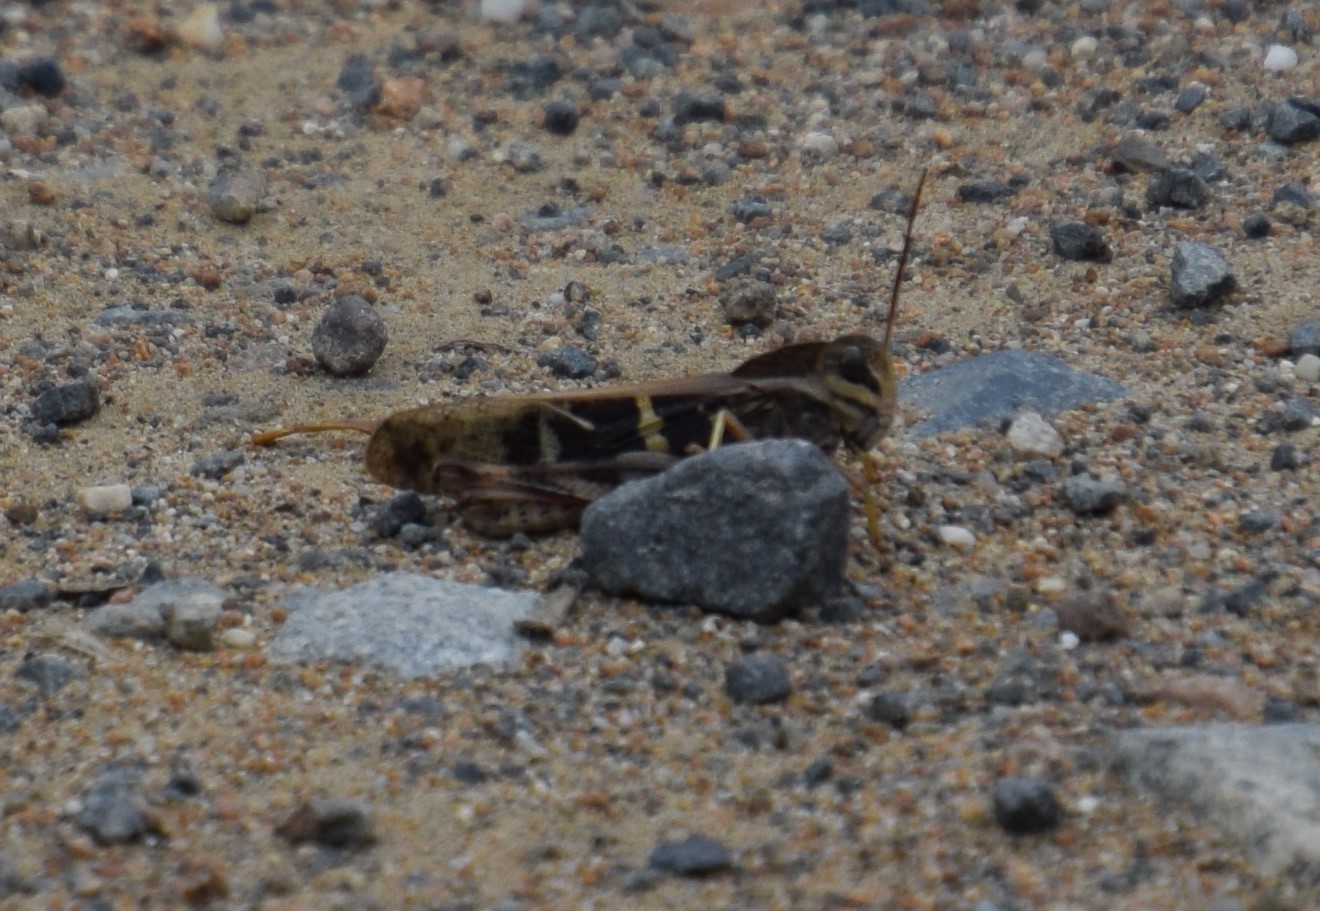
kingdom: Animalia
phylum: Arthropoda
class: Insecta
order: Orthoptera
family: Acrididae
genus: Gastrimargus
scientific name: Gastrimargus musicus
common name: Yellow-winged locust
